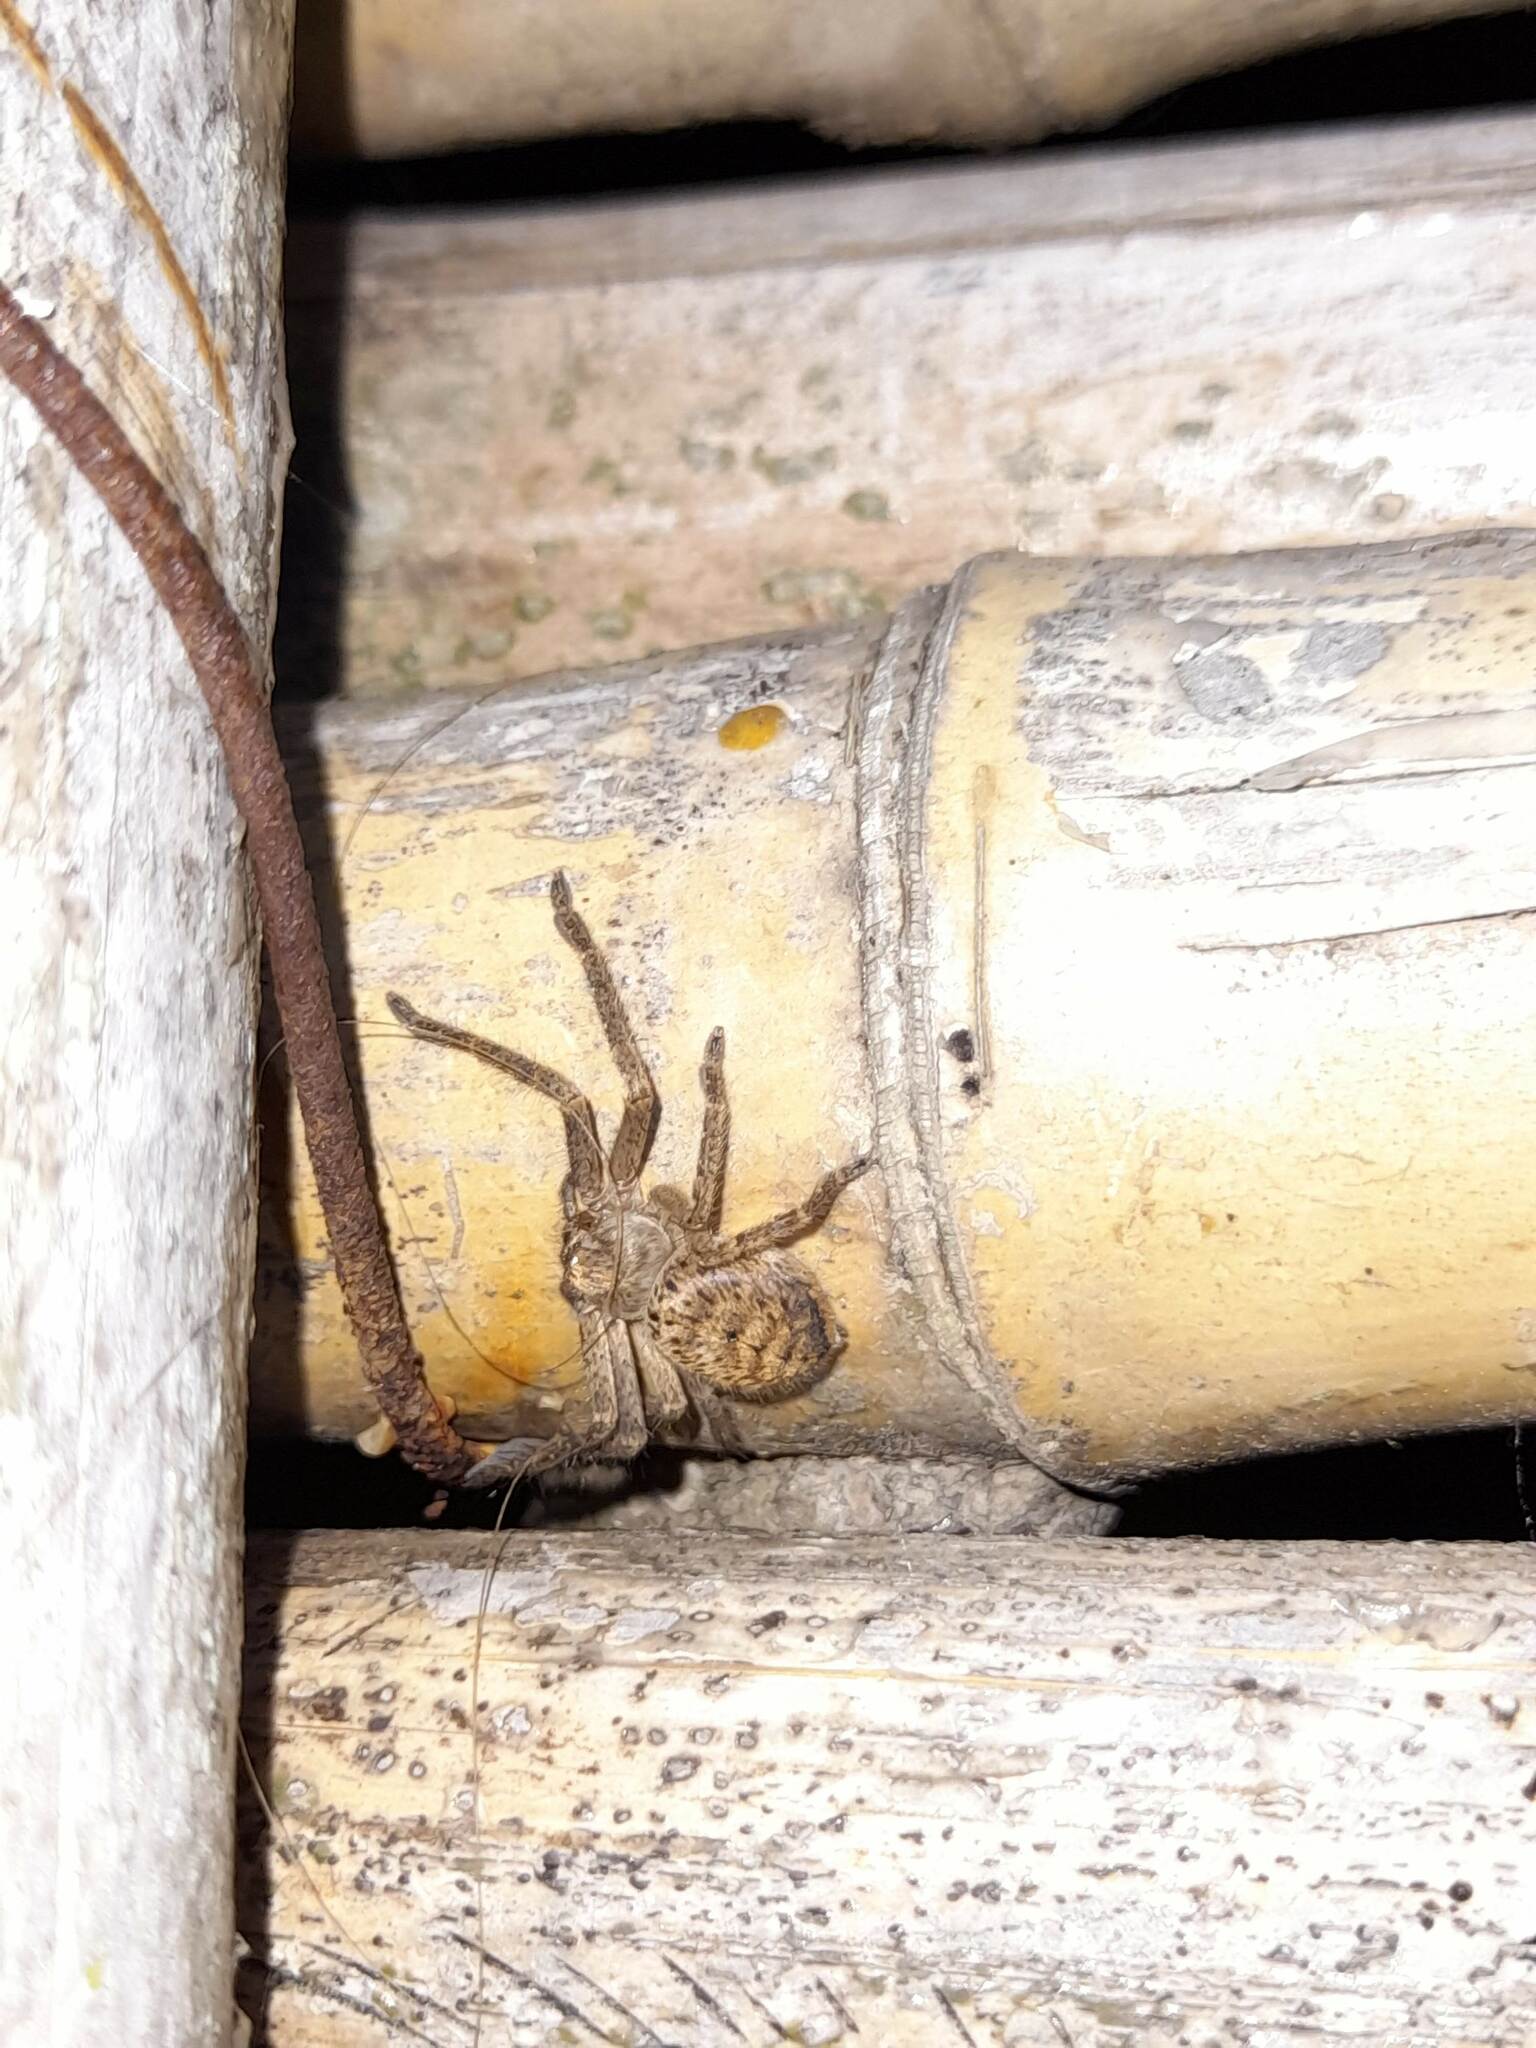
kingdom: Animalia
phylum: Arthropoda
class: Arachnida
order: Araneae
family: Sparassidae
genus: Polybetes
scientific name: Polybetes rapidus
